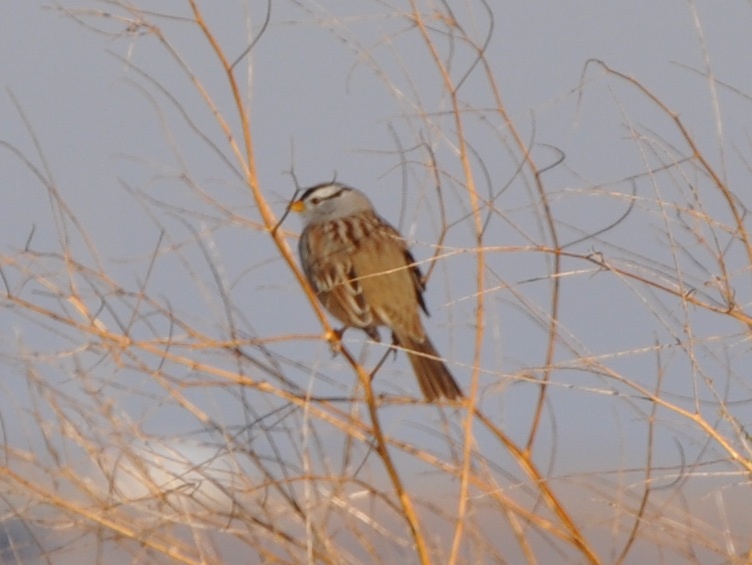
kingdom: Animalia
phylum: Chordata
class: Aves
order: Passeriformes
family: Passerellidae
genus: Zonotrichia
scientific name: Zonotrichia leucophrys
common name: White-crowned sparrow
